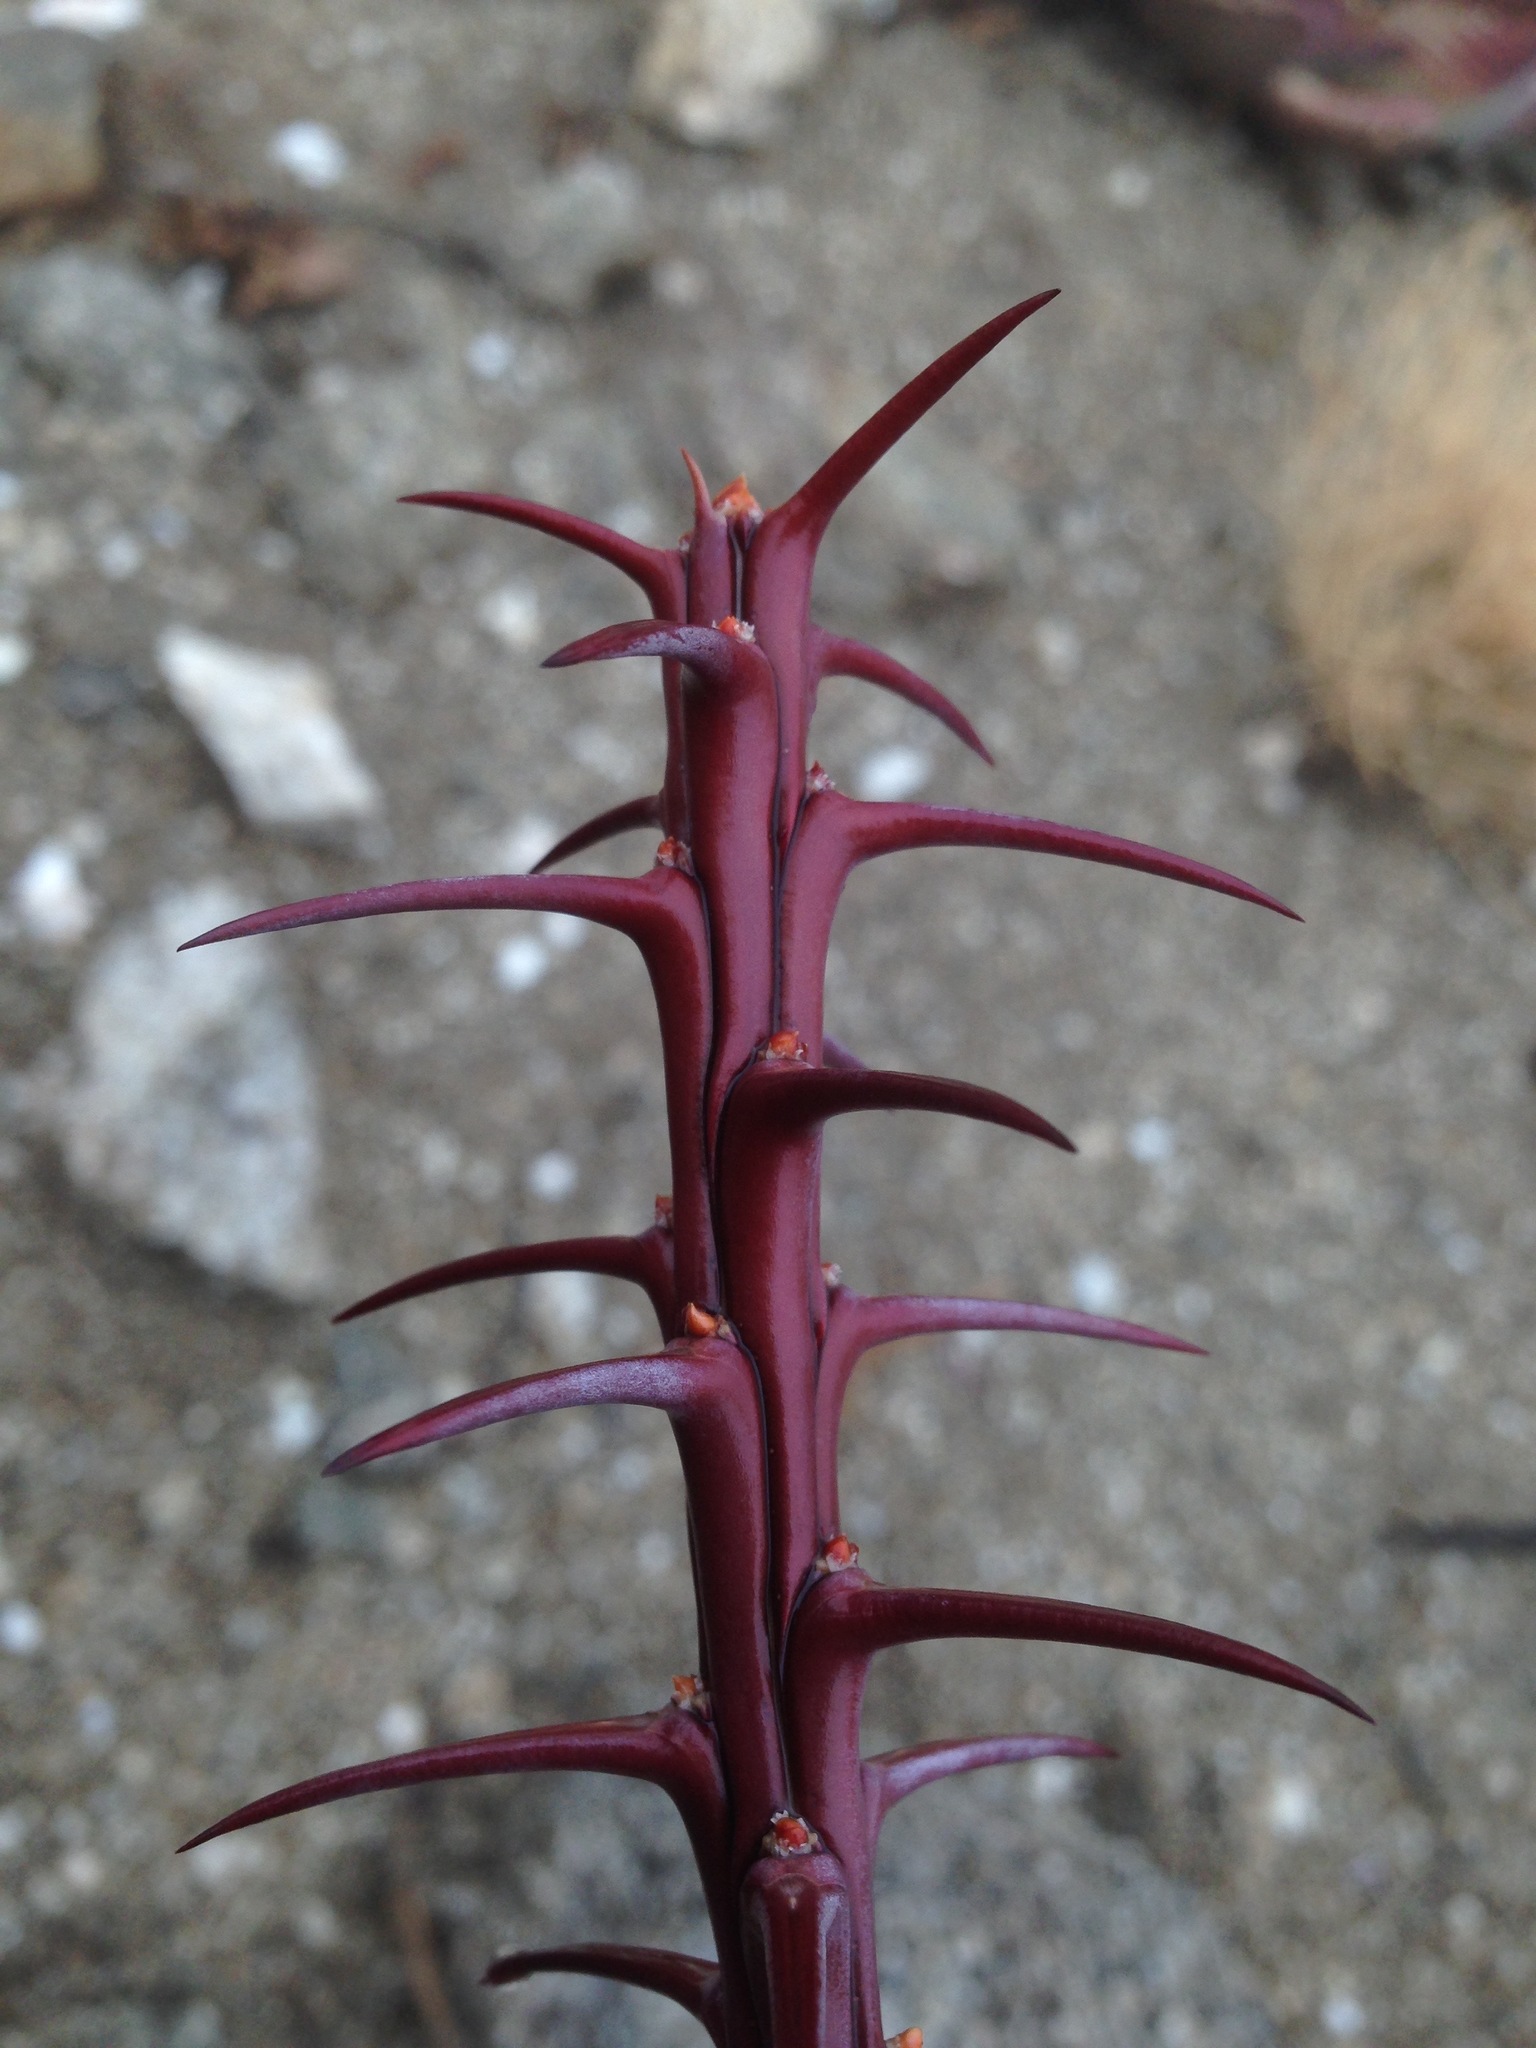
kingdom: Plantae
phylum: Tracheophyta
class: Magnoliopsida
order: Ericales
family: Fouquieriaceae
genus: Fouquieria
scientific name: Fouquieria splendens
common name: Vine-cactus
